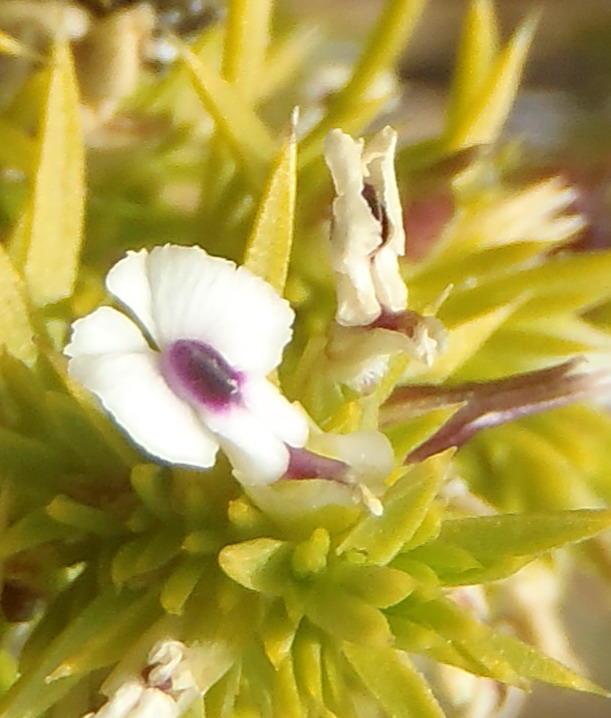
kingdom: Plantae
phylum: Tracheophyta
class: Magnoliopsida
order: Fabales
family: Polygalaceae
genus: Muraltia
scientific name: Muraltia ericifolia
